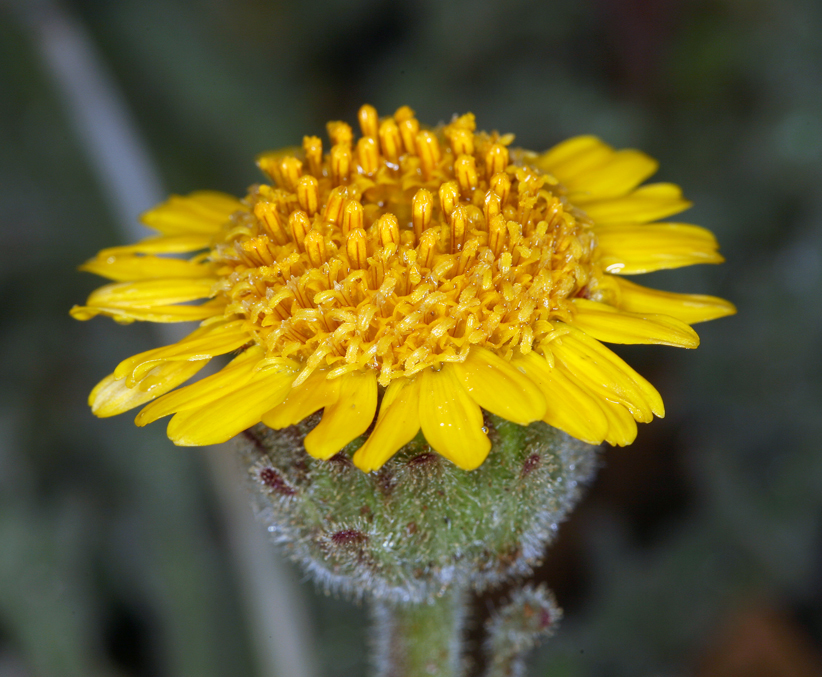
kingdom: Plantae
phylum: Tracheophyta
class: Magnoliopsida
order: Asterales
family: Asteraceae
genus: Hulsea
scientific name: Hulsea nana
